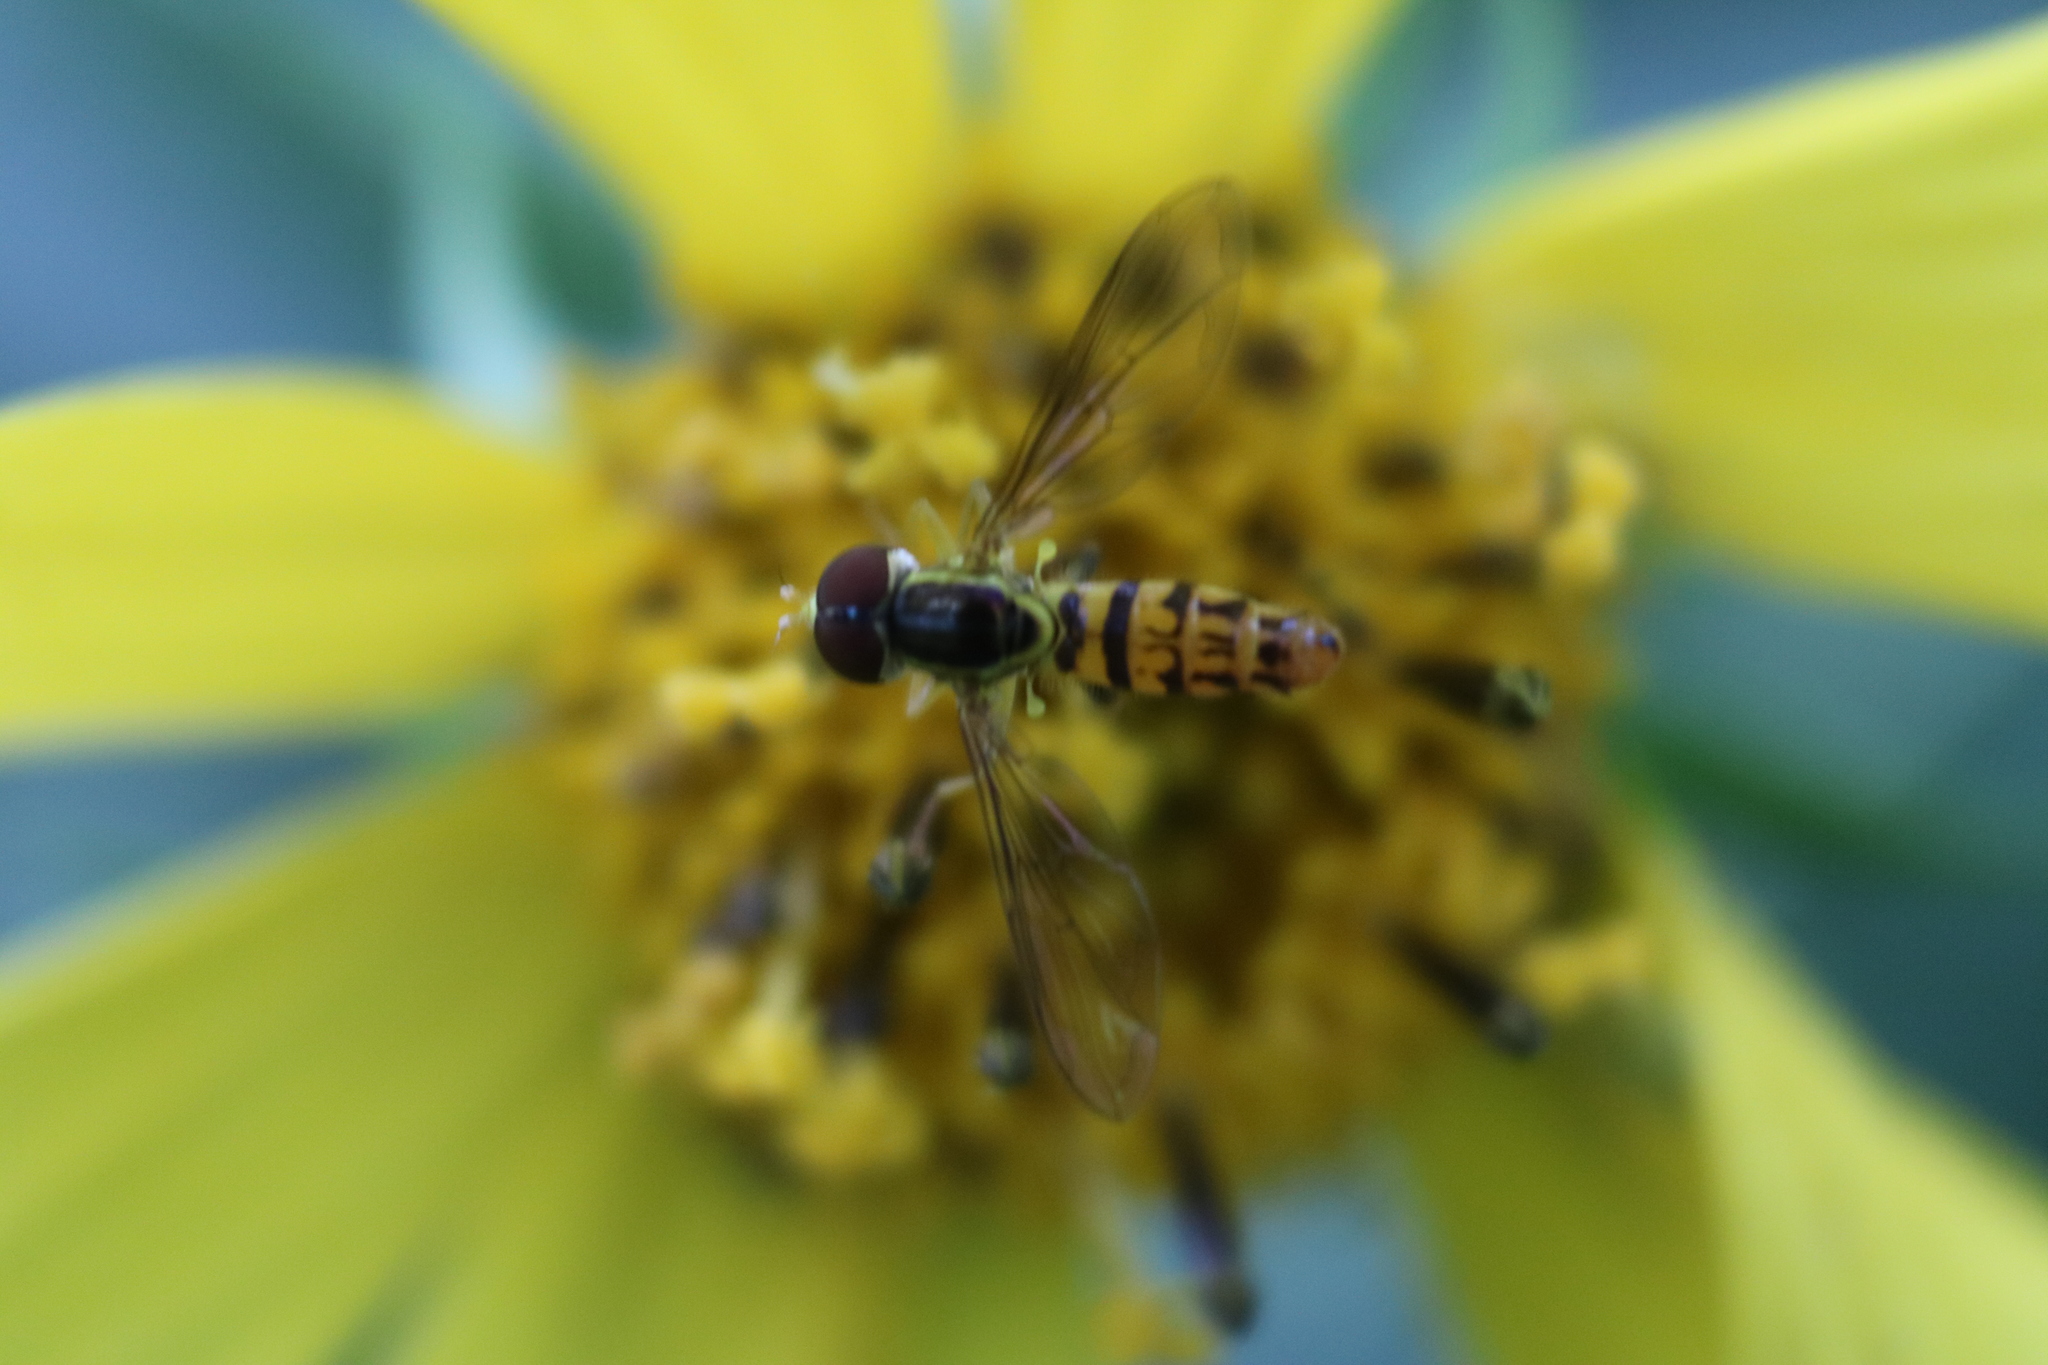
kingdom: Animalia
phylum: Arthropoda
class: Insecta
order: Diptera
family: Syrphidae
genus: Toxomerus
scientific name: Toxomerus geminatus
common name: Eastern calligrapher
